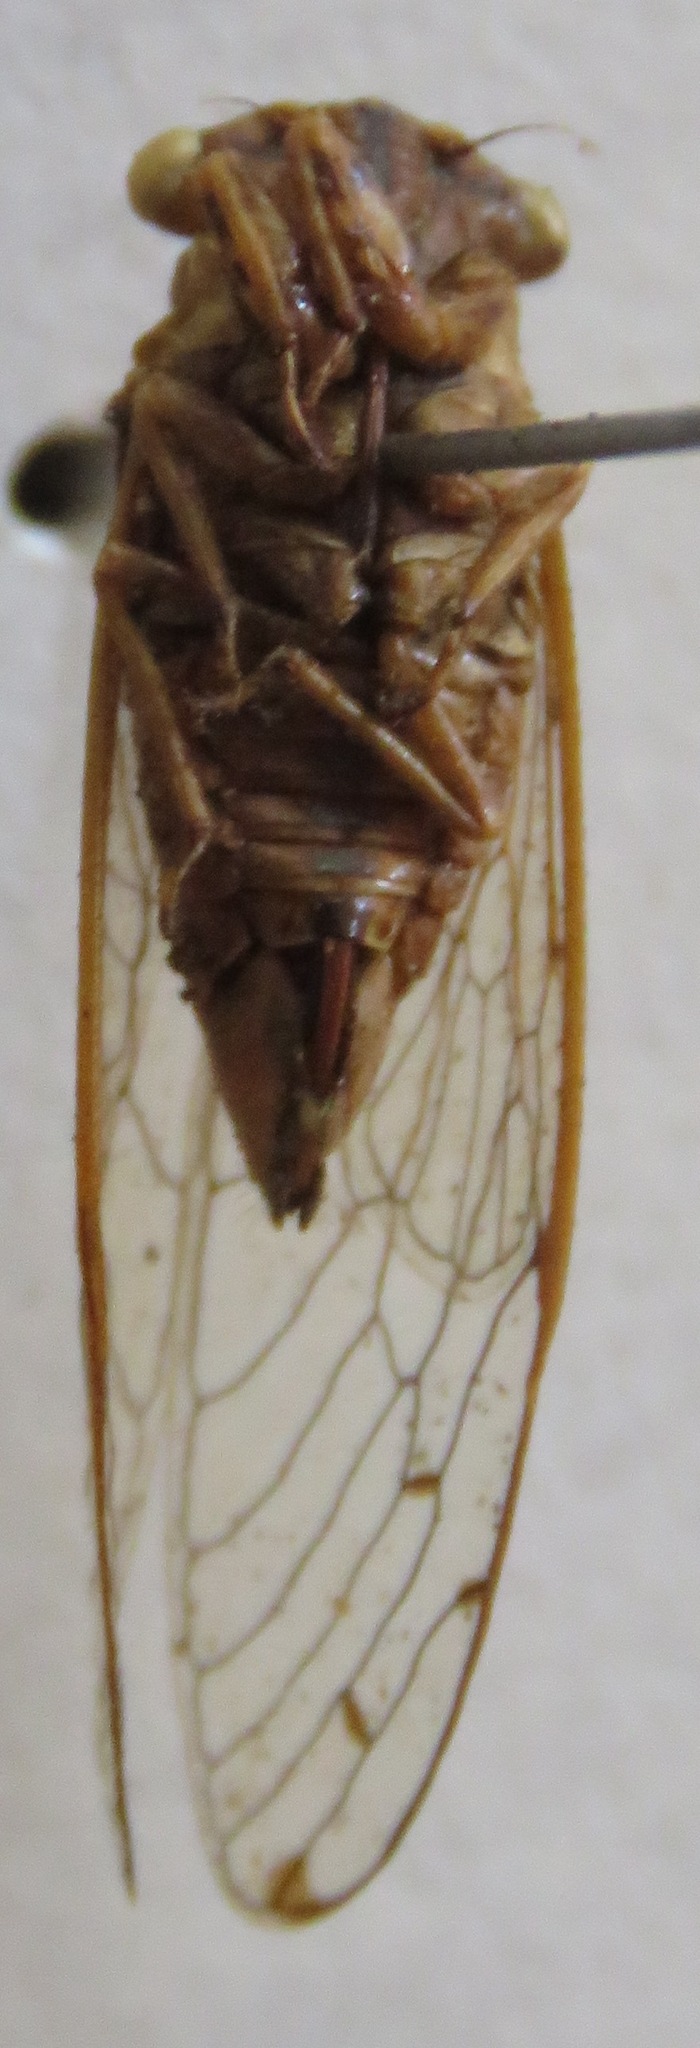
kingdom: Animalia
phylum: Arthropoda
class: Insecta
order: Hemiptera
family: Cicadidae
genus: Pacarina
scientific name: Pacarina schumanni
